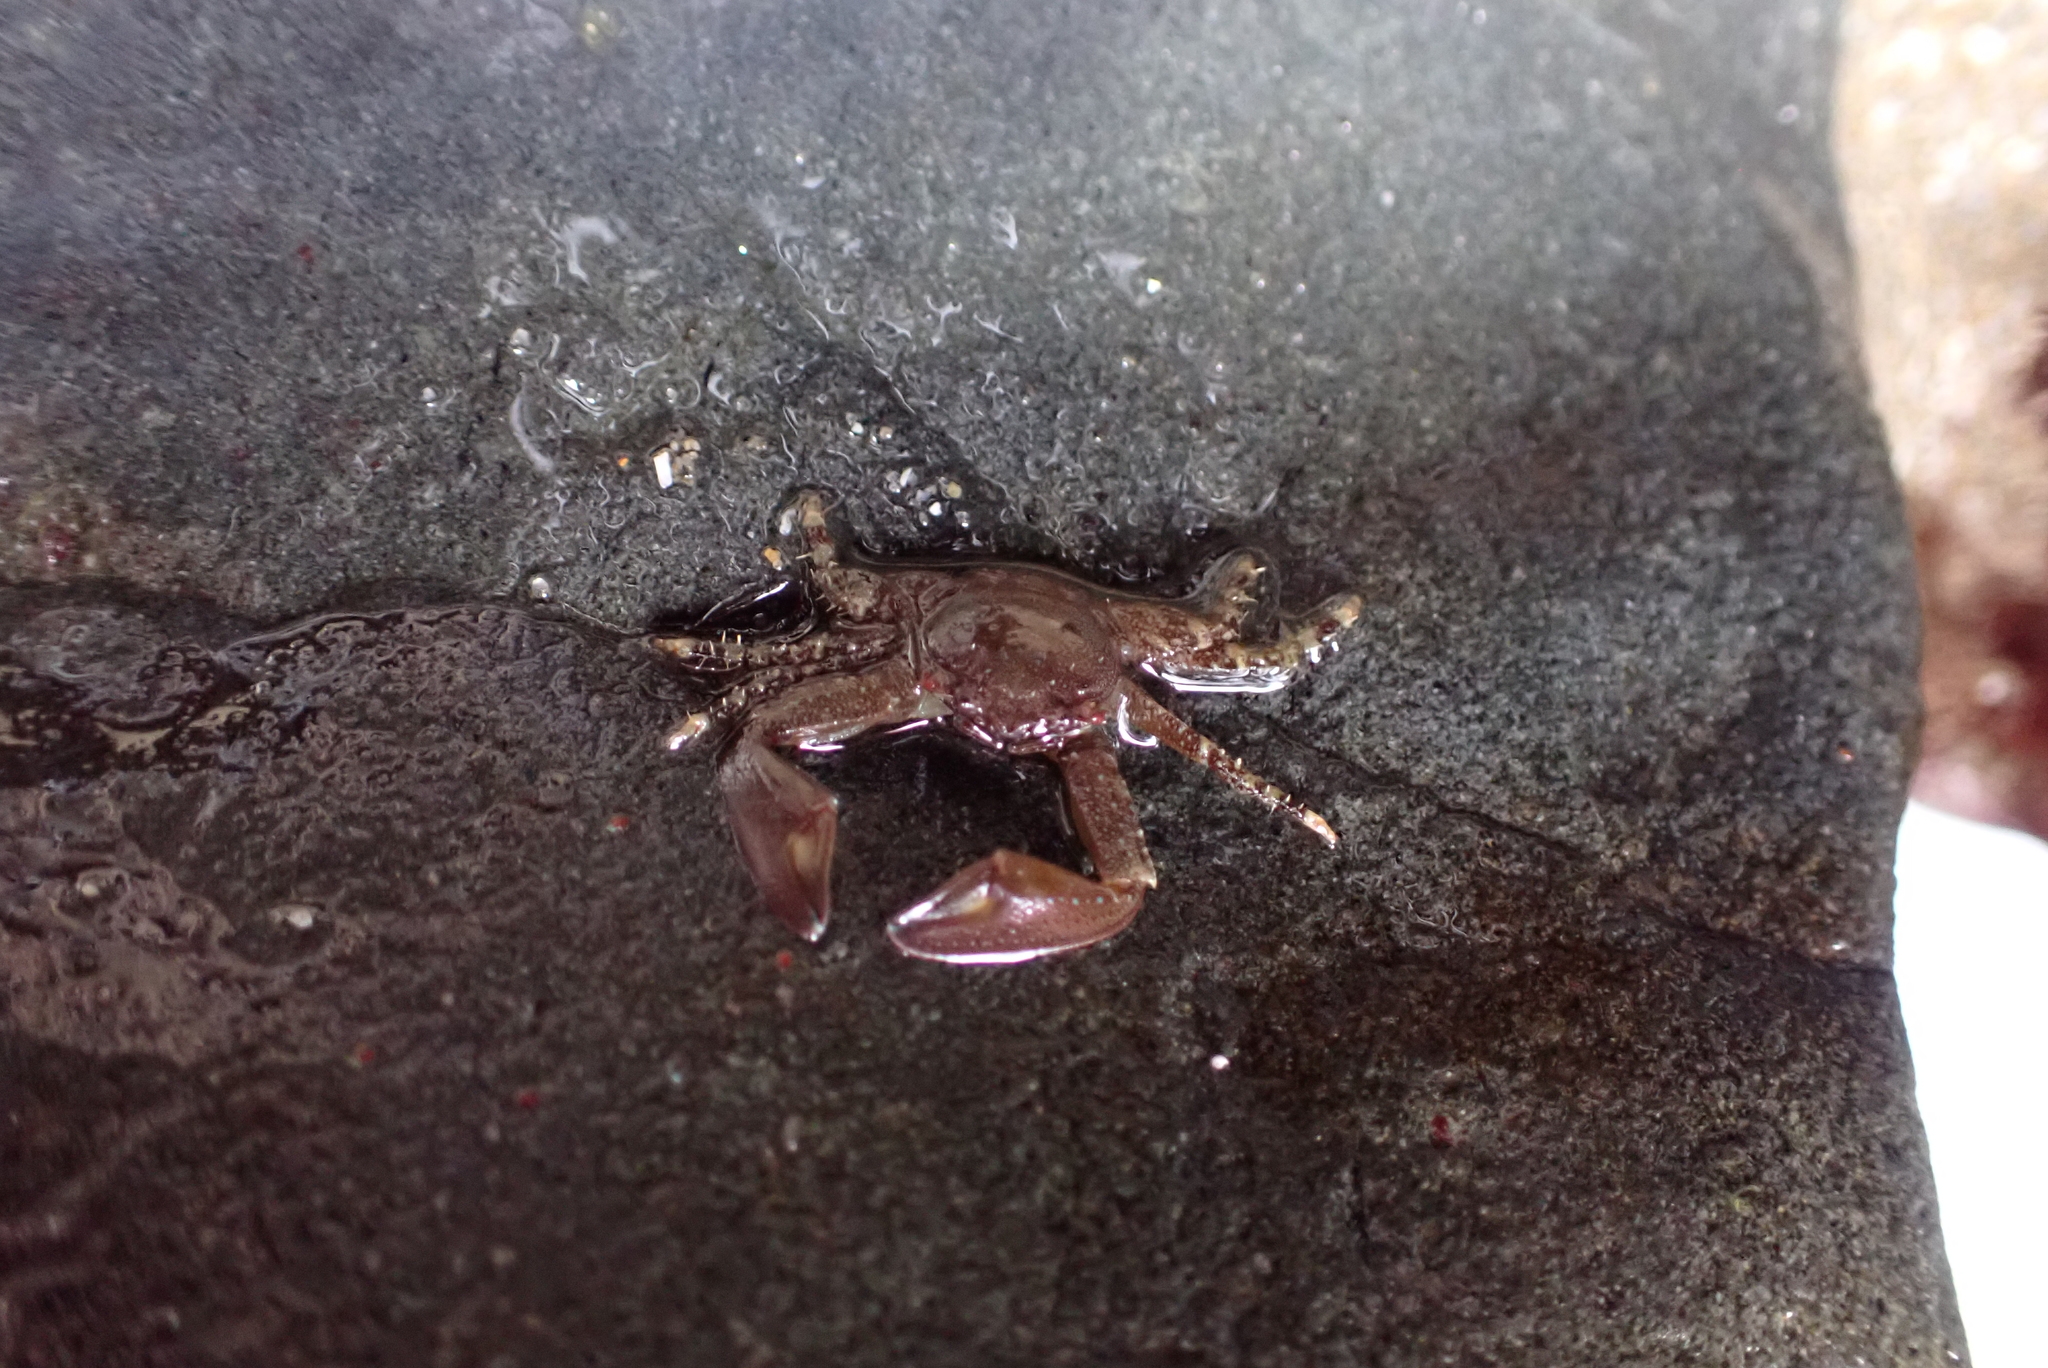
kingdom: Animalia
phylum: Arthropoda
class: Malacostraca
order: Decapoda
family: Porcellanidae
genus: Petrolisthes
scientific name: Petrolisthes manimaculis
